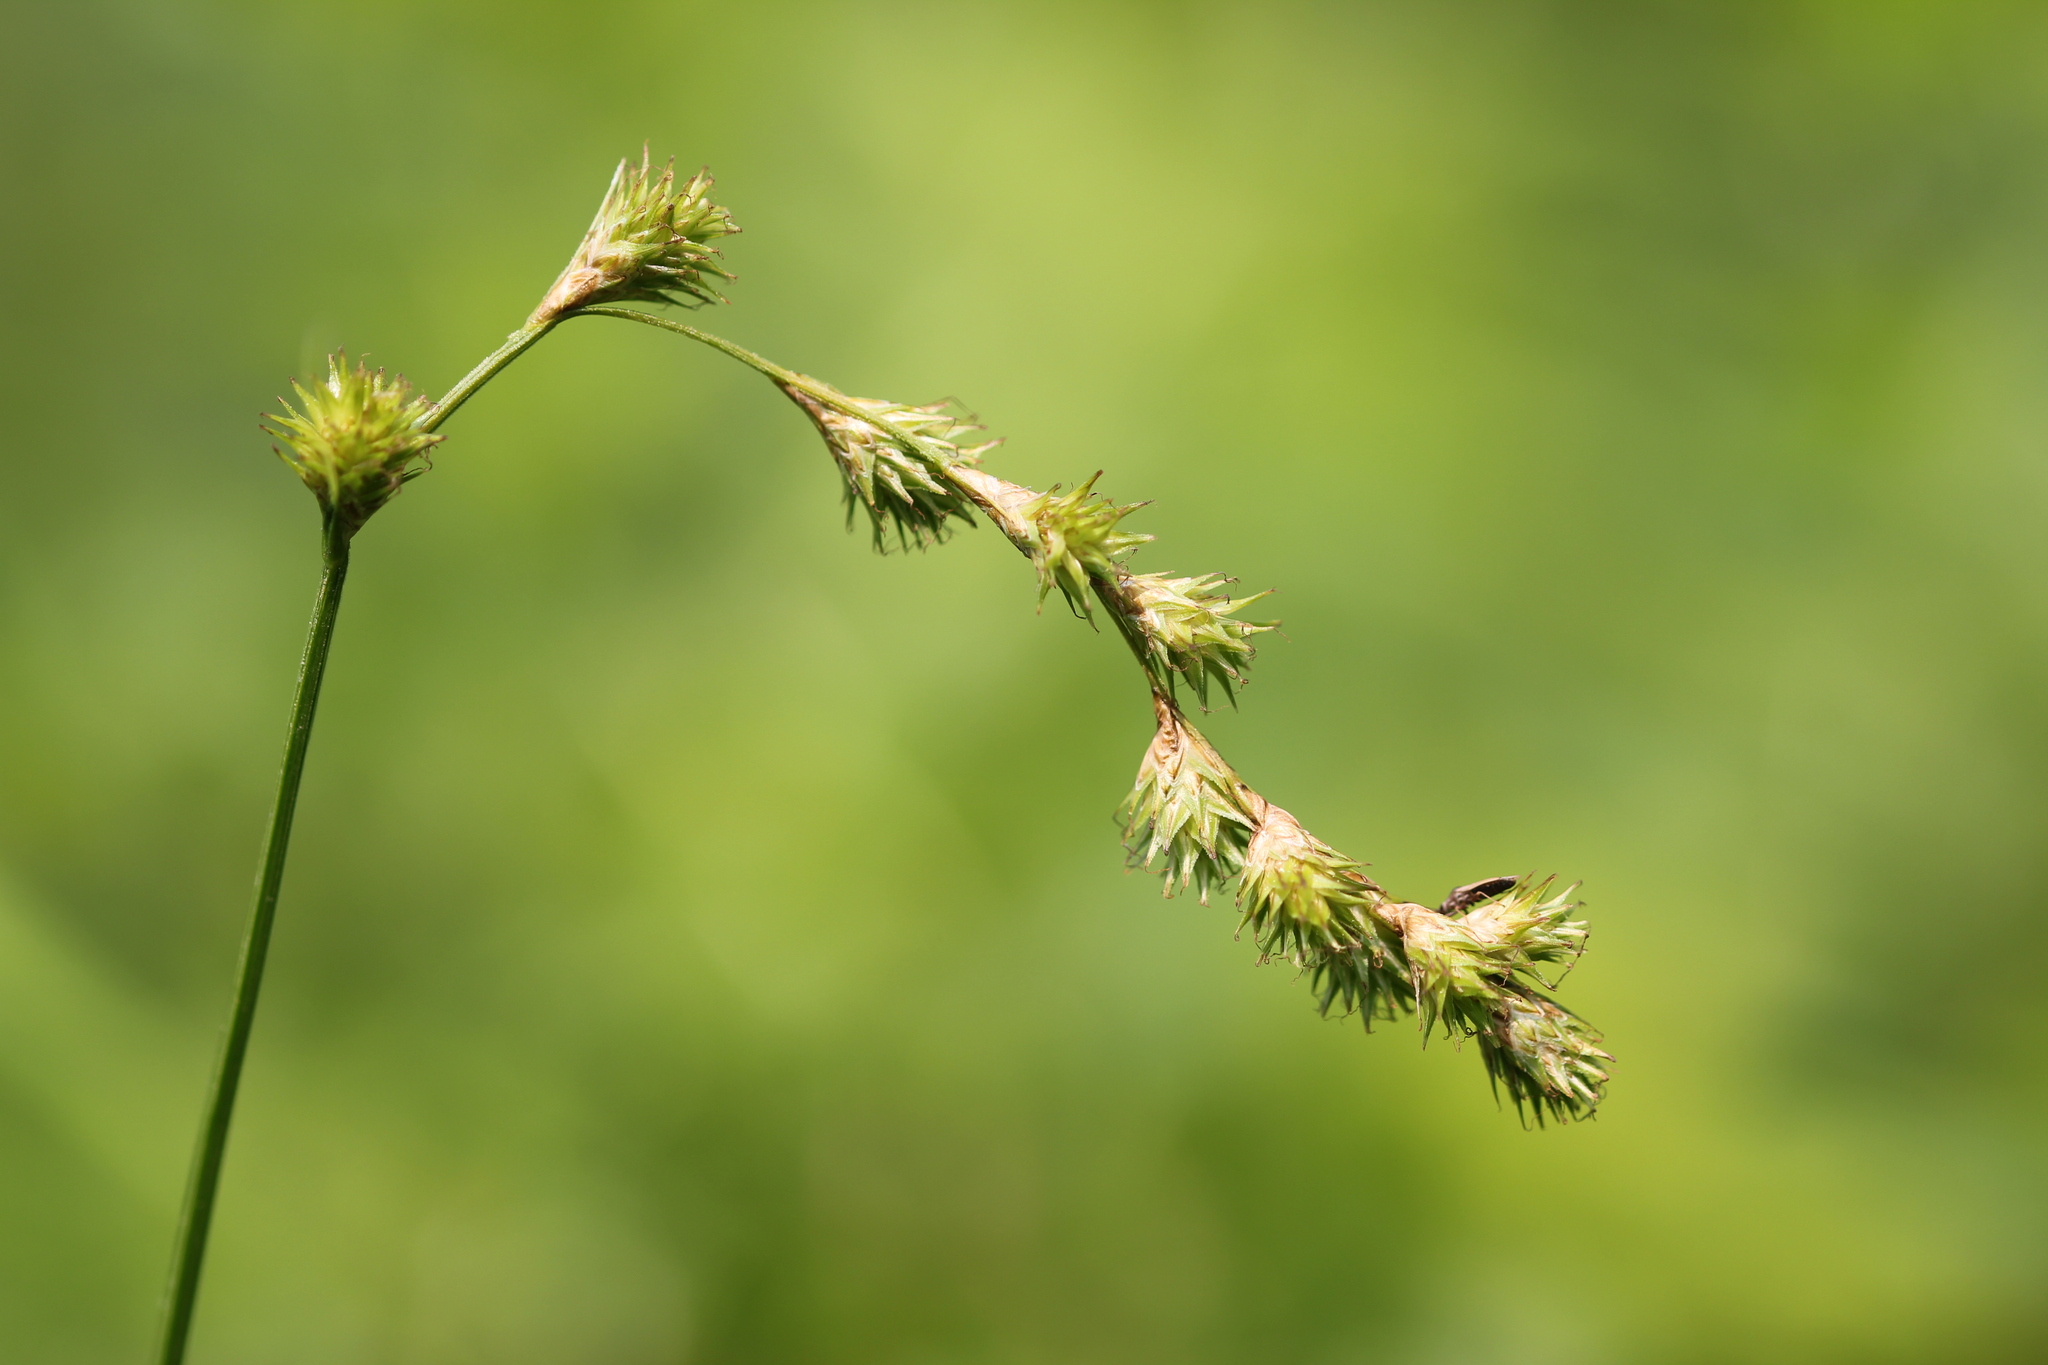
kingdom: Plantae
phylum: Tracheophyta
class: Liliopsida
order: Poales
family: Cyperaceae
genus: Carex
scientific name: Carex projecta
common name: Loose-headed oval sedge
